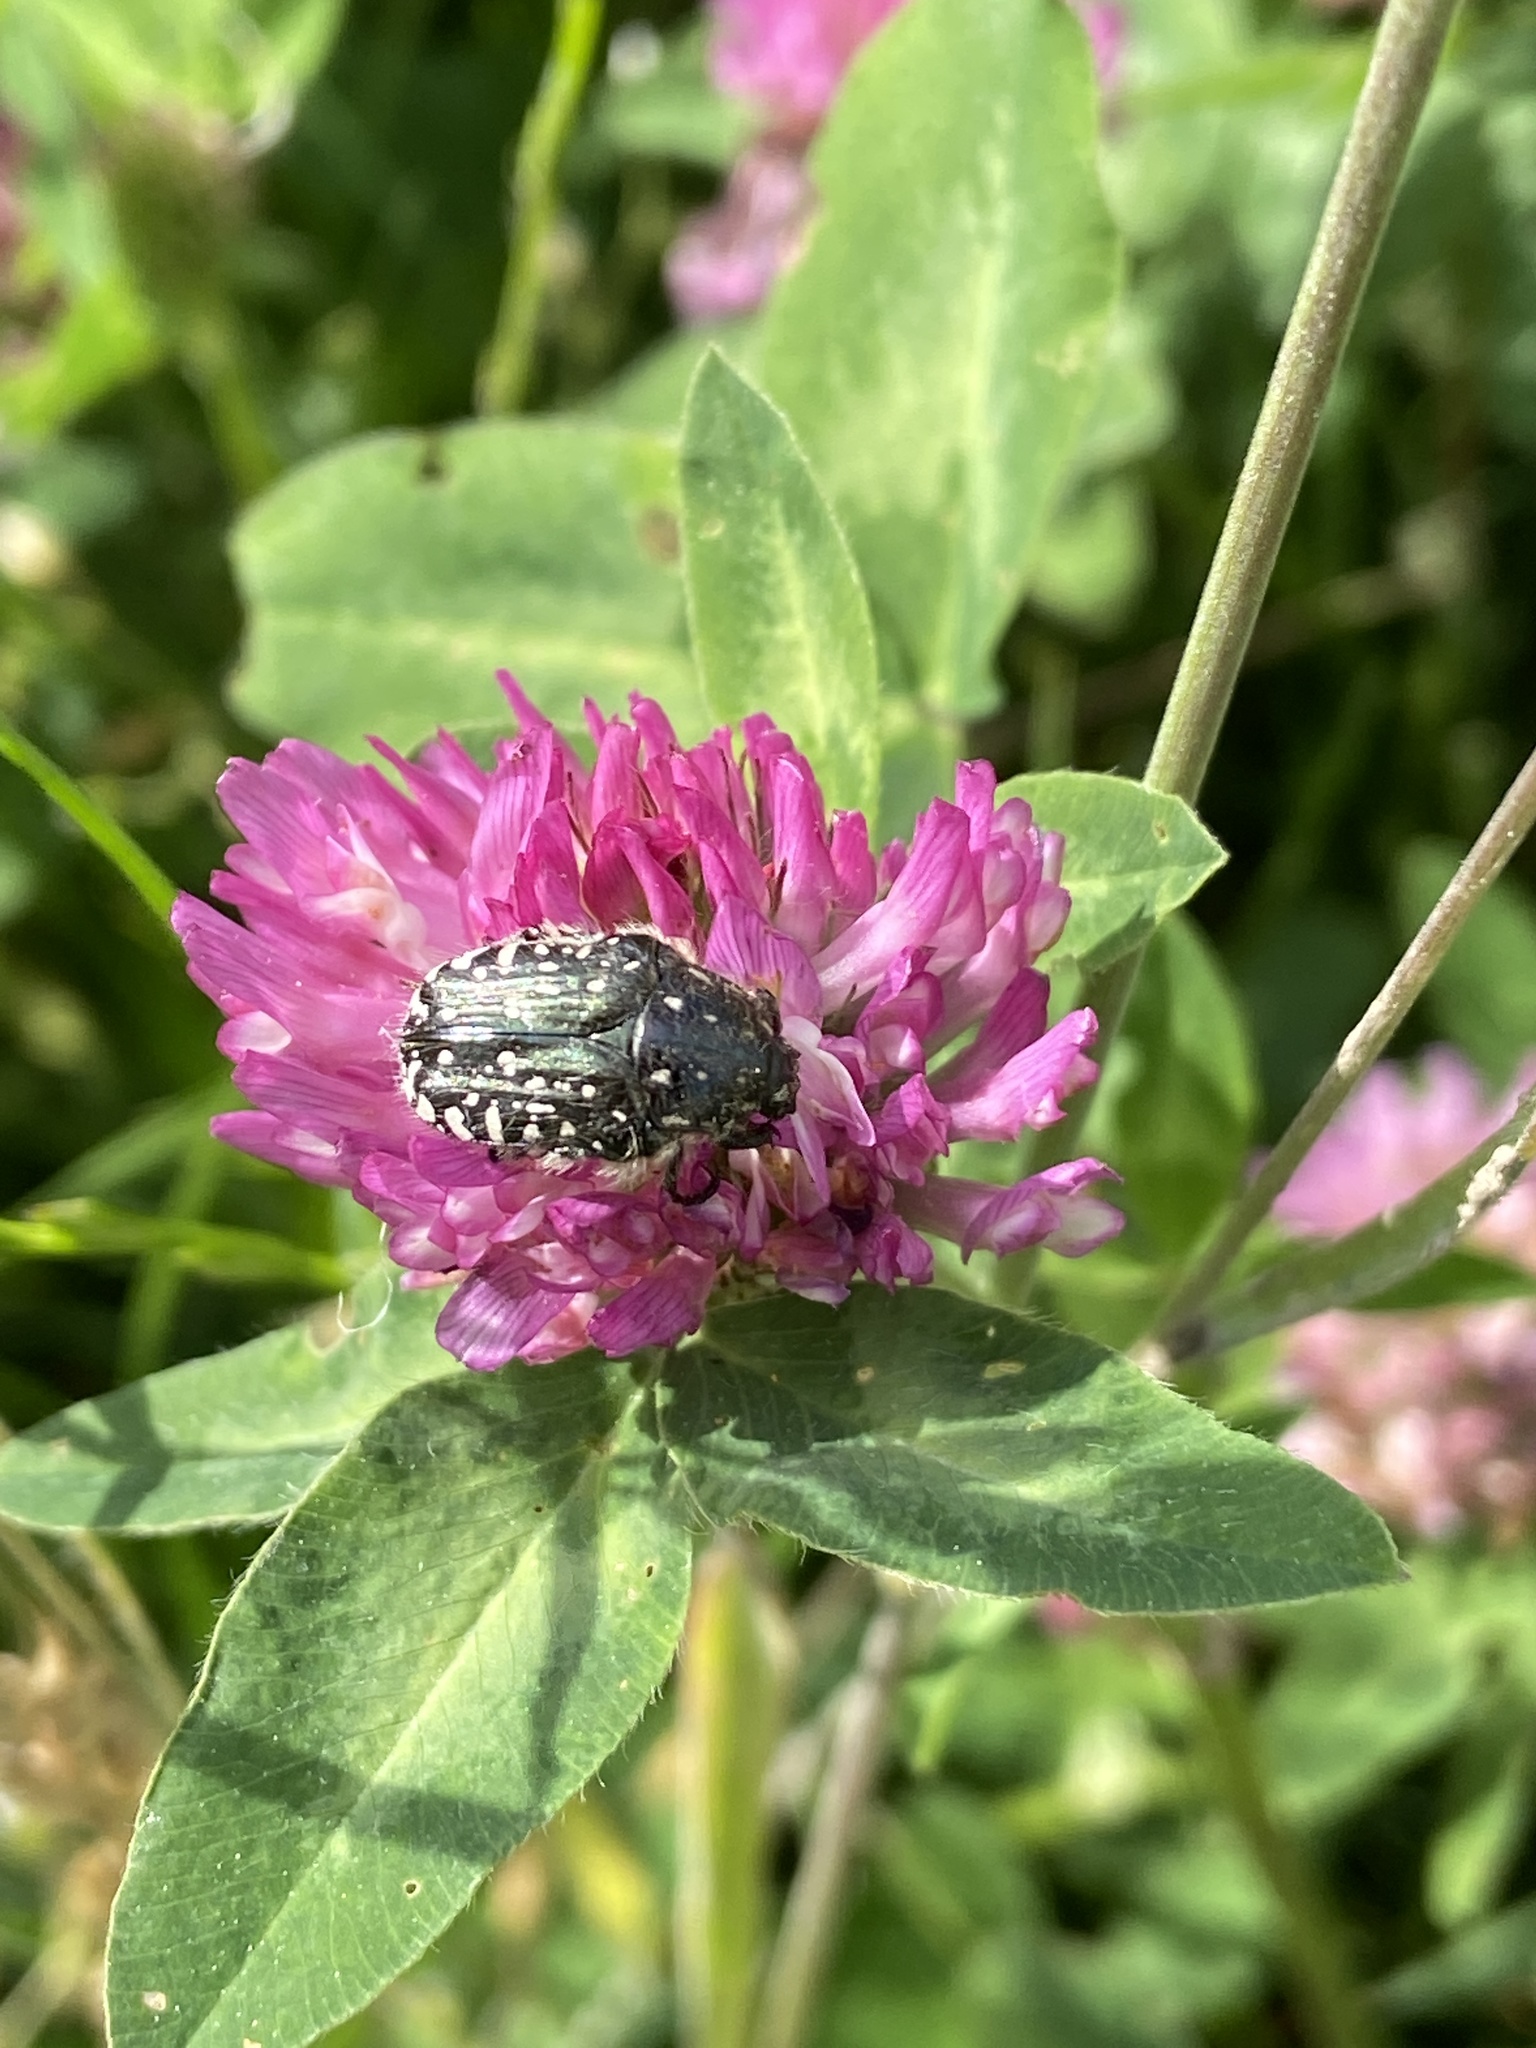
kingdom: Animalia
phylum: Arthropoda
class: Insecta
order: Coleoptera
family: Scarabaeidae
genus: Oxythyrea
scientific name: Oxythyrea funesta
